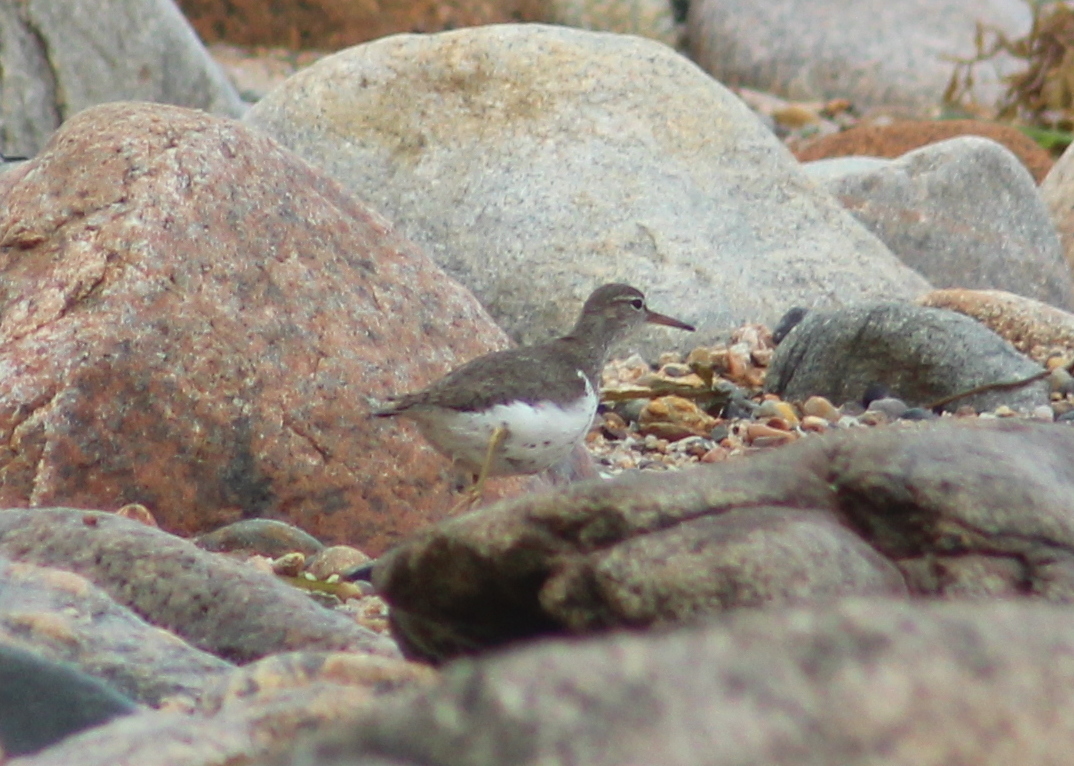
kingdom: Animalia
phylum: Chordata
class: Aves
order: Charadriiformes
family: Scolopacidae
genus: Actitis
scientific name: Actitis macularius
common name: Spotted sandpiper
